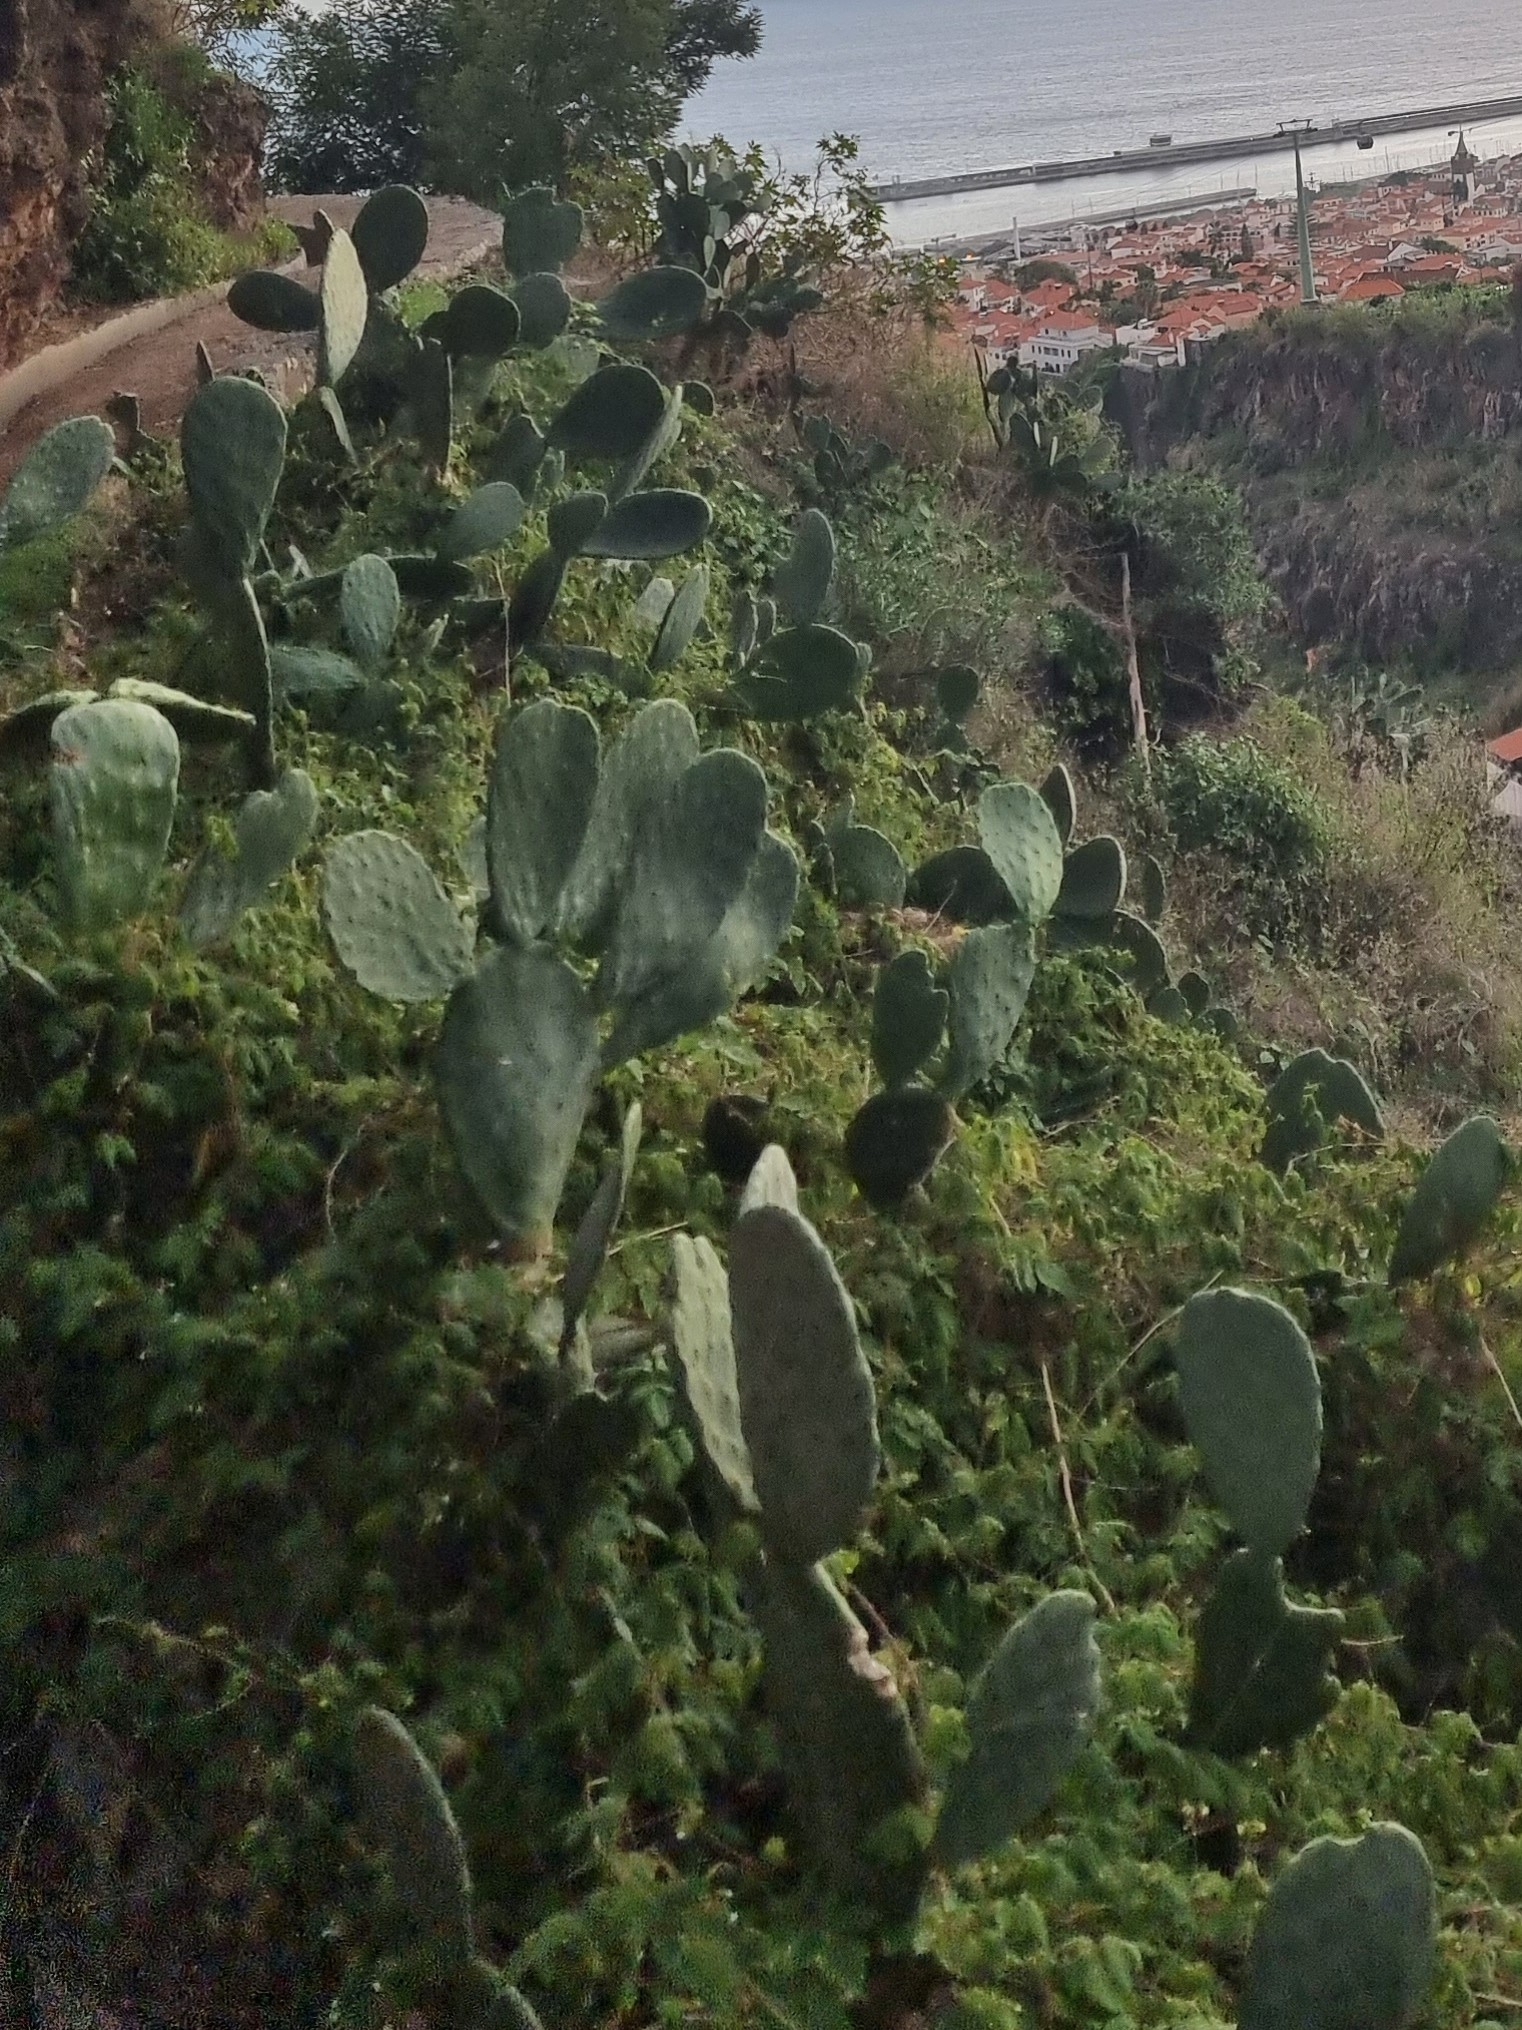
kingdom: Plantae
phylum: Tracheophyta
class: Magnoliopsida
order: Caryophyllales
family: Cactaceae
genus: Opuntia
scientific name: Opuntia ficus-indica
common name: Barbary fig
